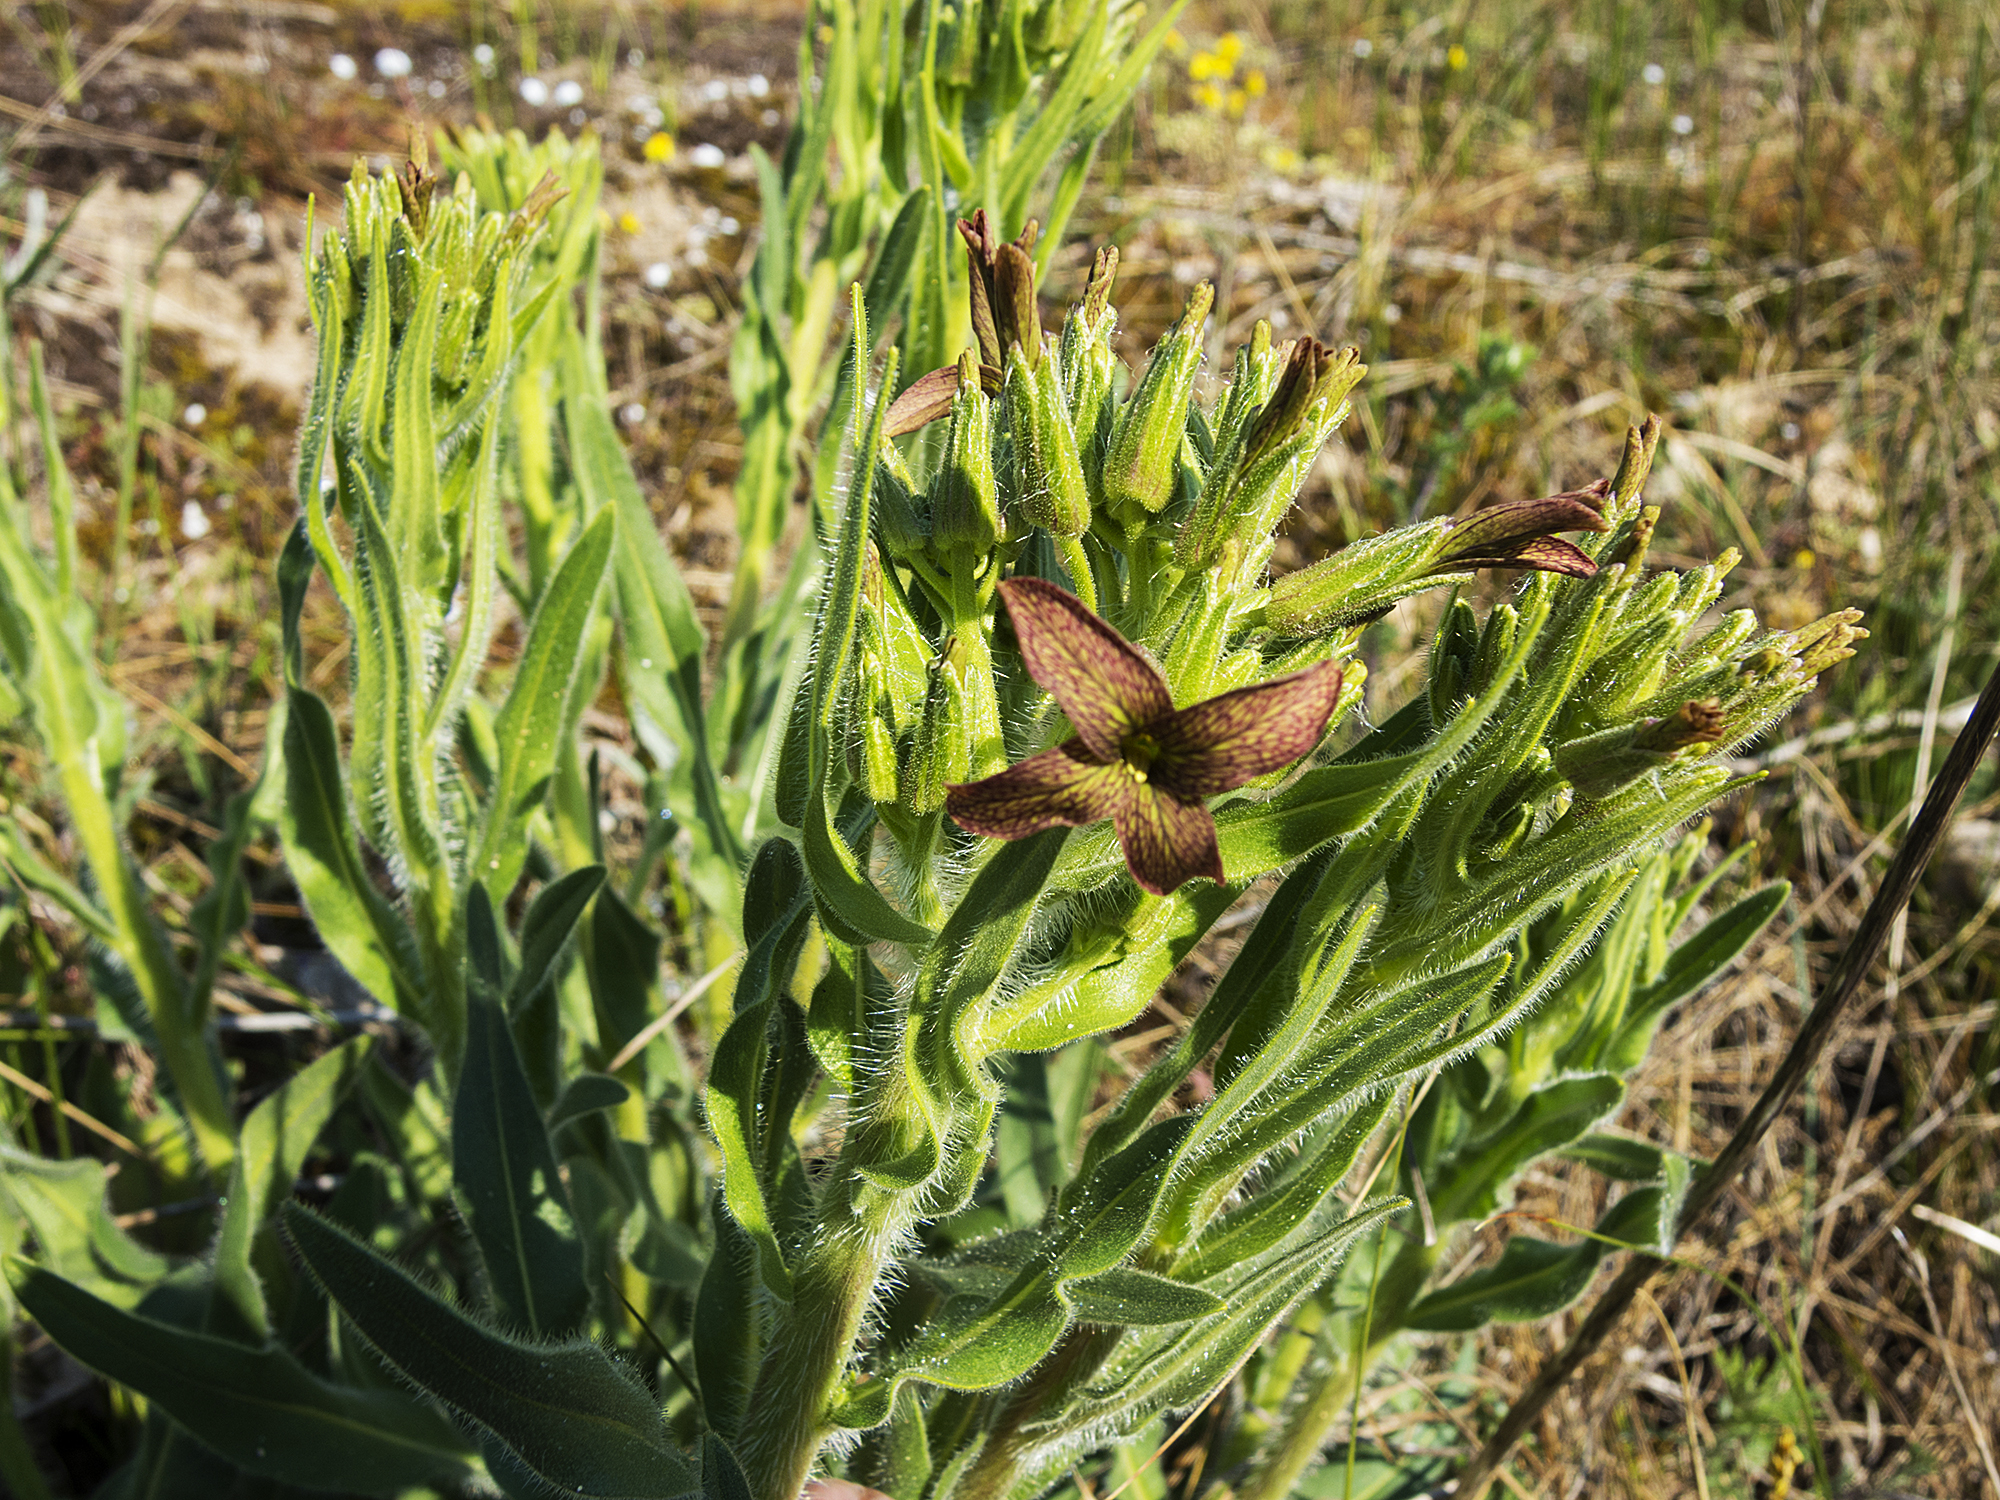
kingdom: Plantae
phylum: Tracheophyta
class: Magnoliopsida
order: Brassicales
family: Brassicaceae
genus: Hesperis
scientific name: Hesperis tristis
